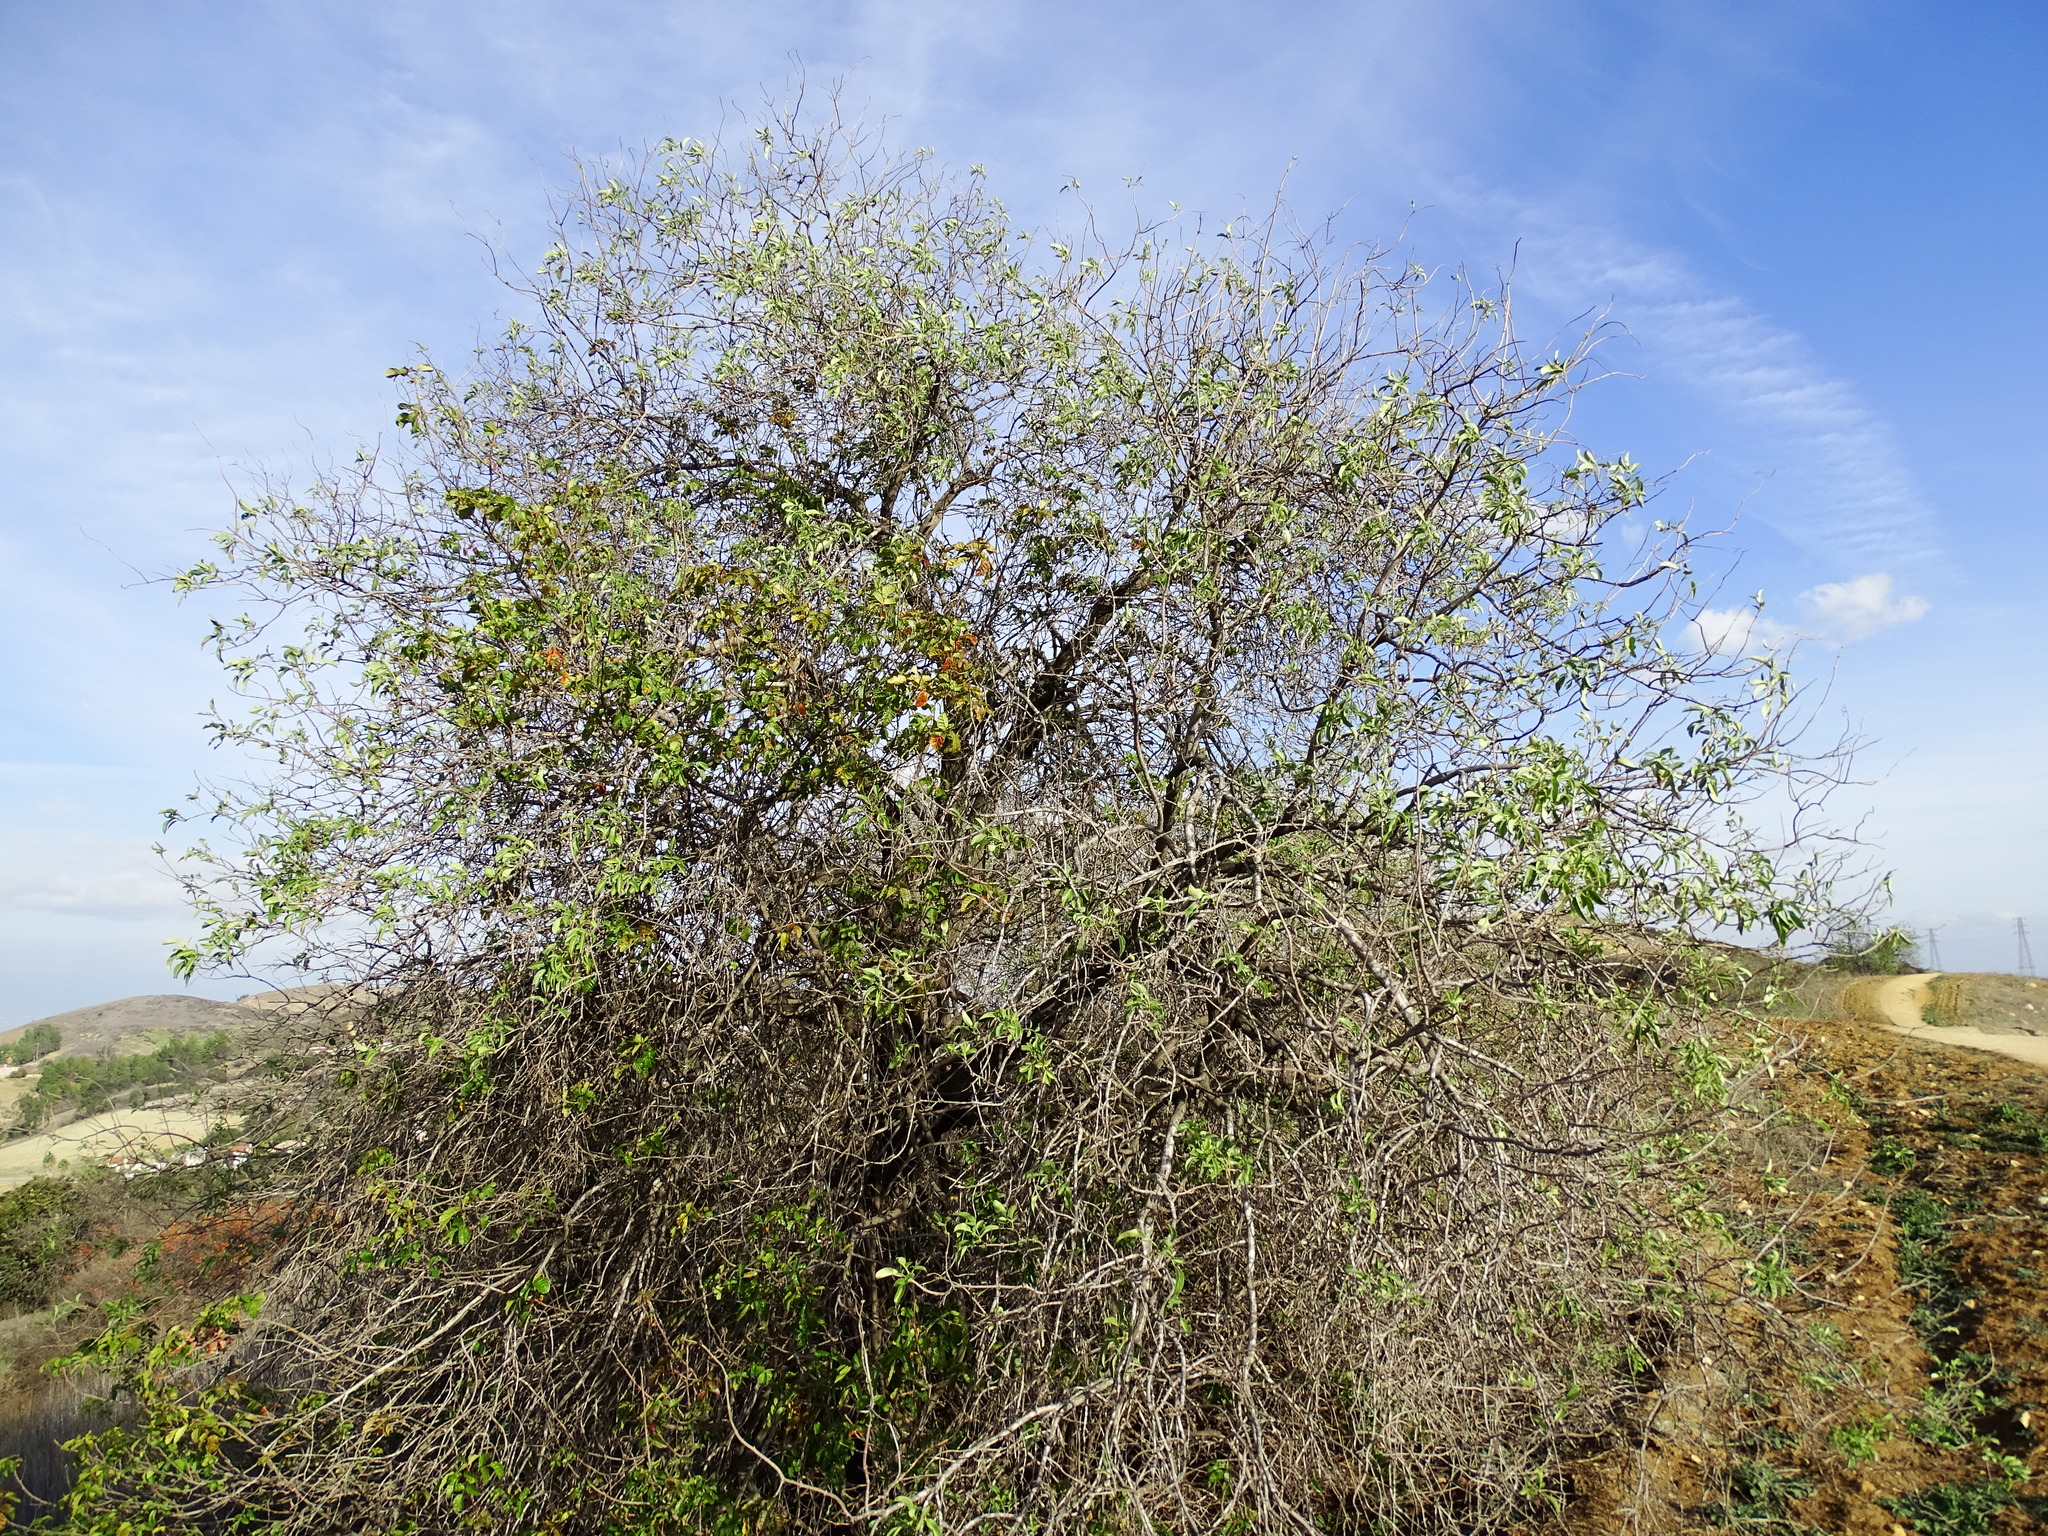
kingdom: Plantae
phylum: Tracheophyta
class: Magnoliopsida
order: Dipsacales
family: Viburnaceae
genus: Sambucus
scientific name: Sambucus cerulea
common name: Blue elder
